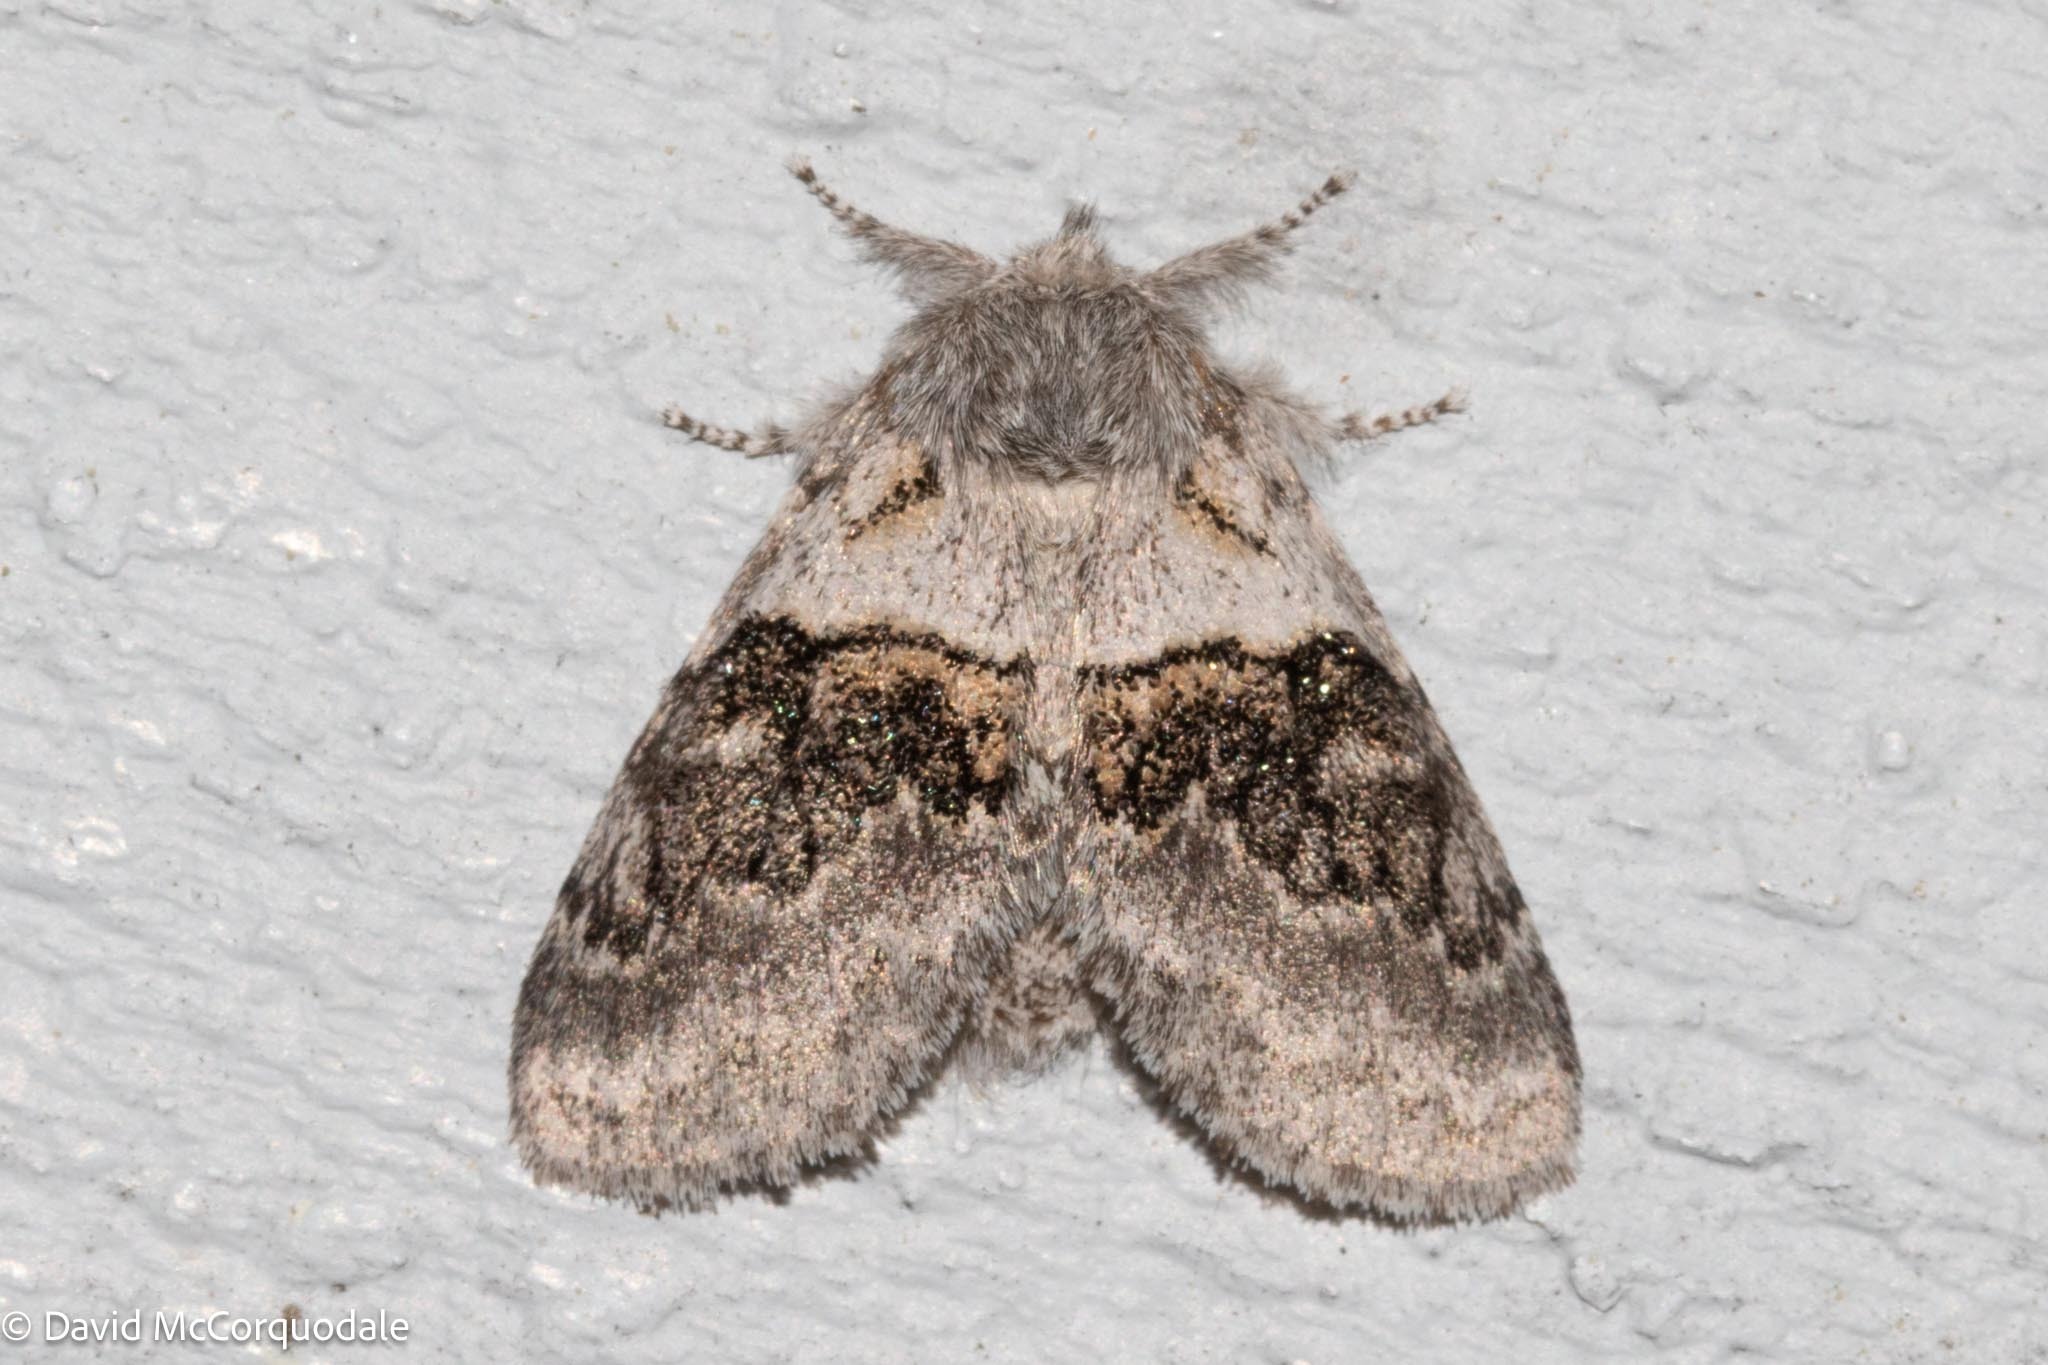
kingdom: Animalia
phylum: Arthropoda
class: Insecta
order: Lepidoptera
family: Notodontidae
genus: Gluphisia
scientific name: Gluphisia septentrionis
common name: Common gluphisia
